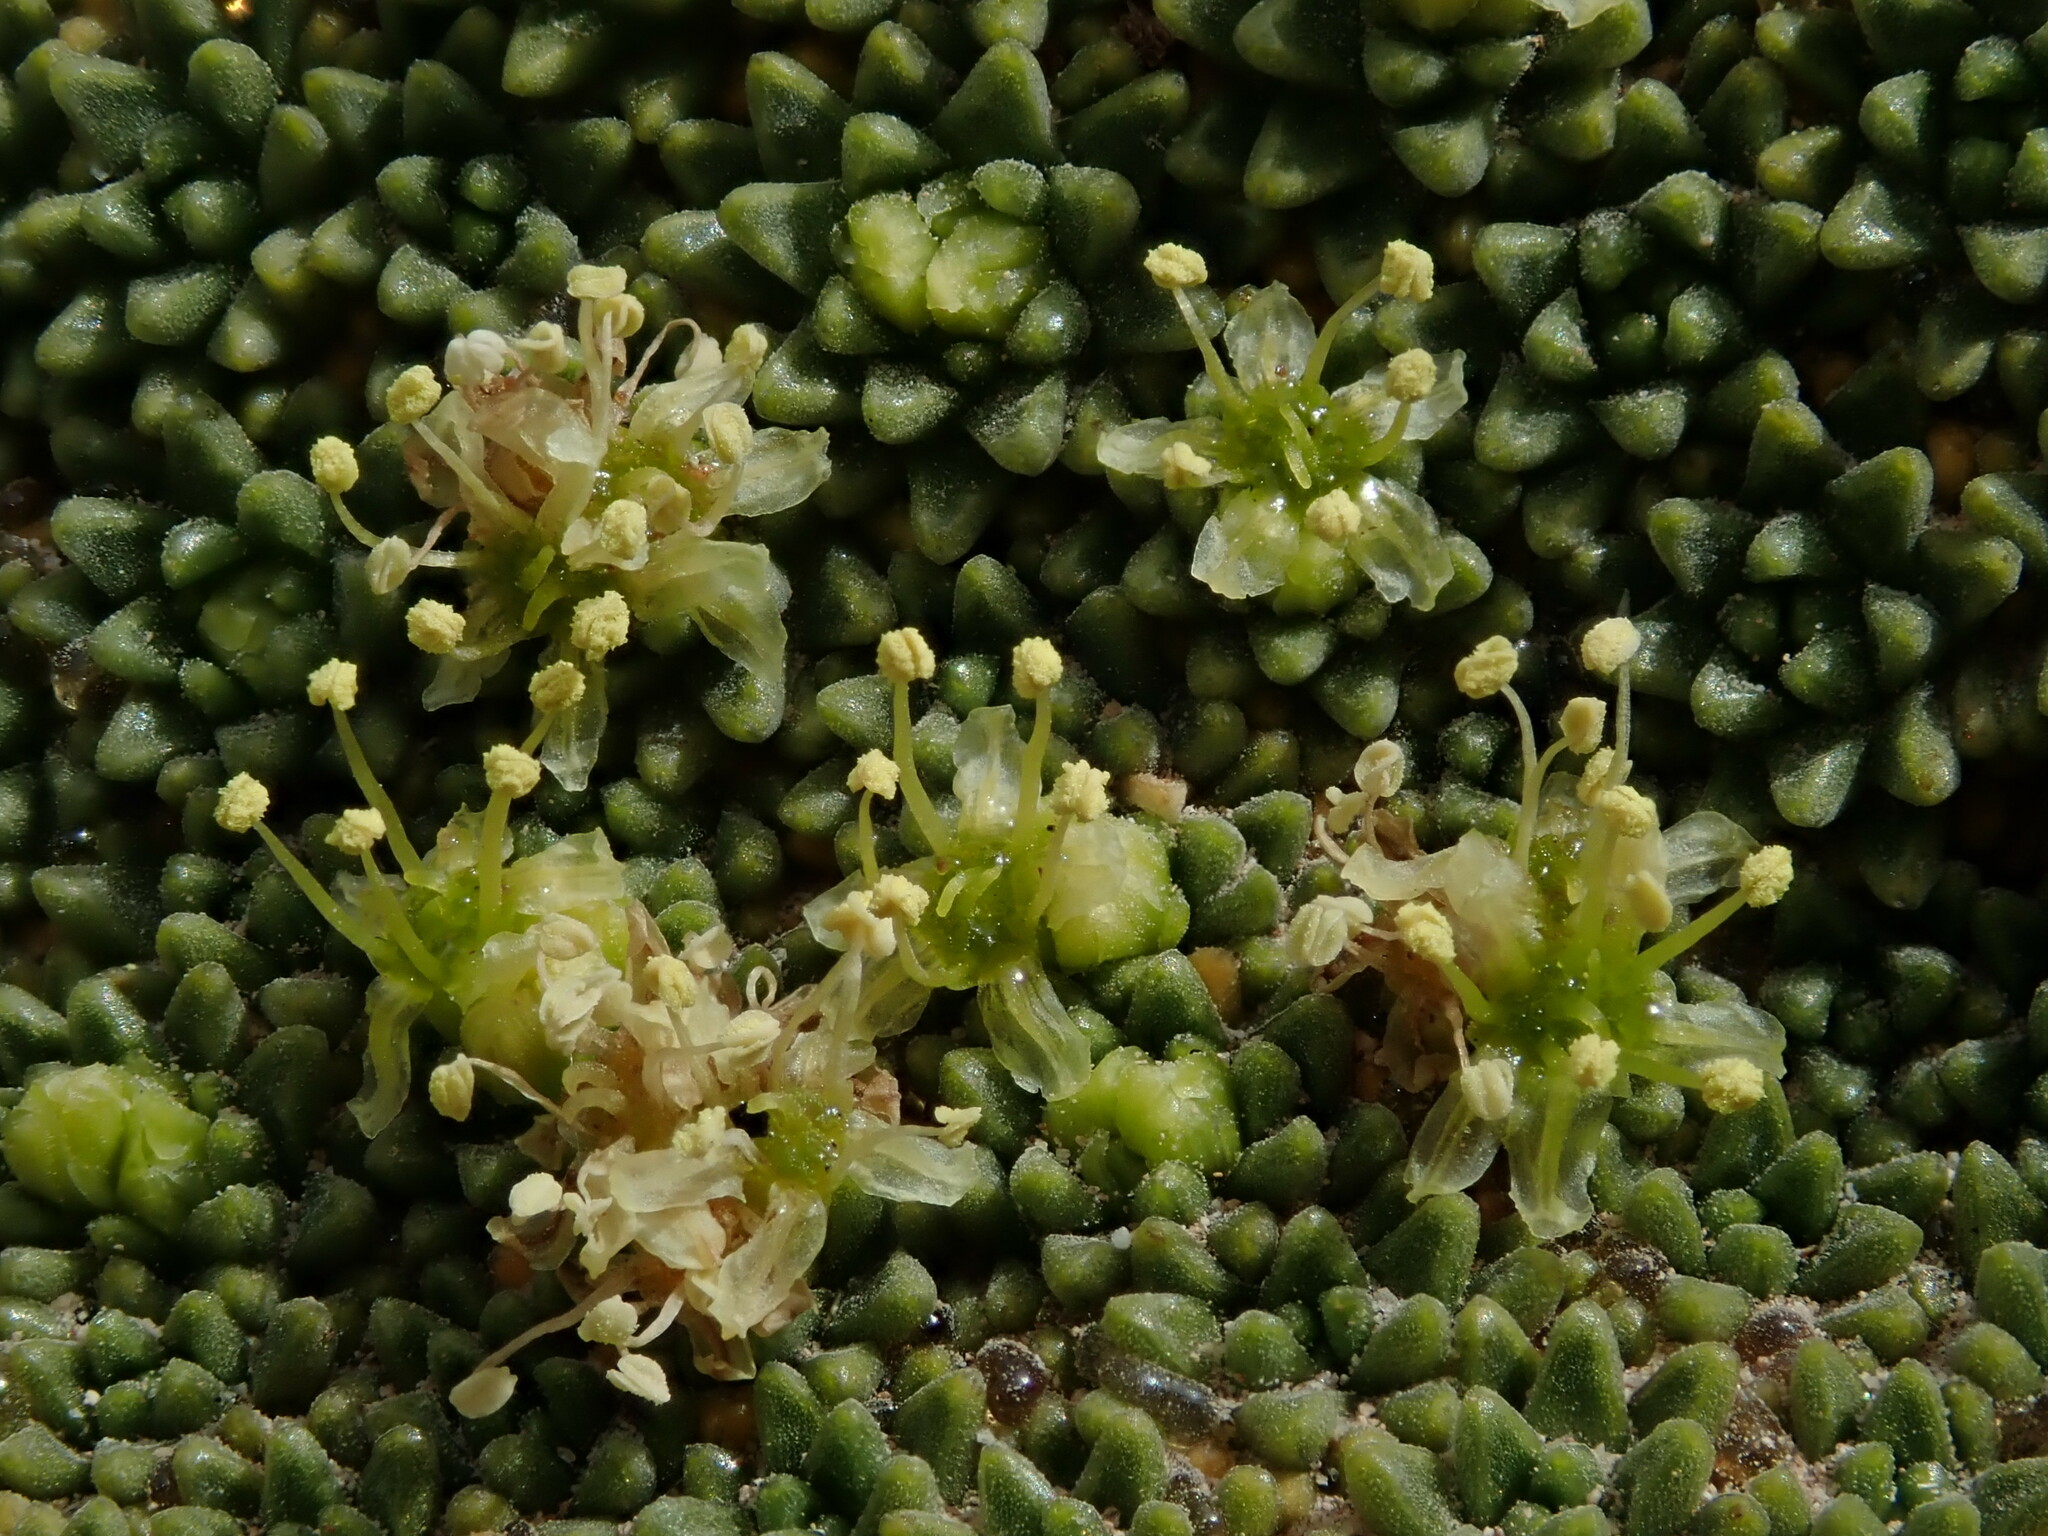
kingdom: Plantae
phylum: Tracheophyta
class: Magnoliopsida
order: Apiales
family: Apiaceae
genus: Azorella
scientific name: Azorella compacta
